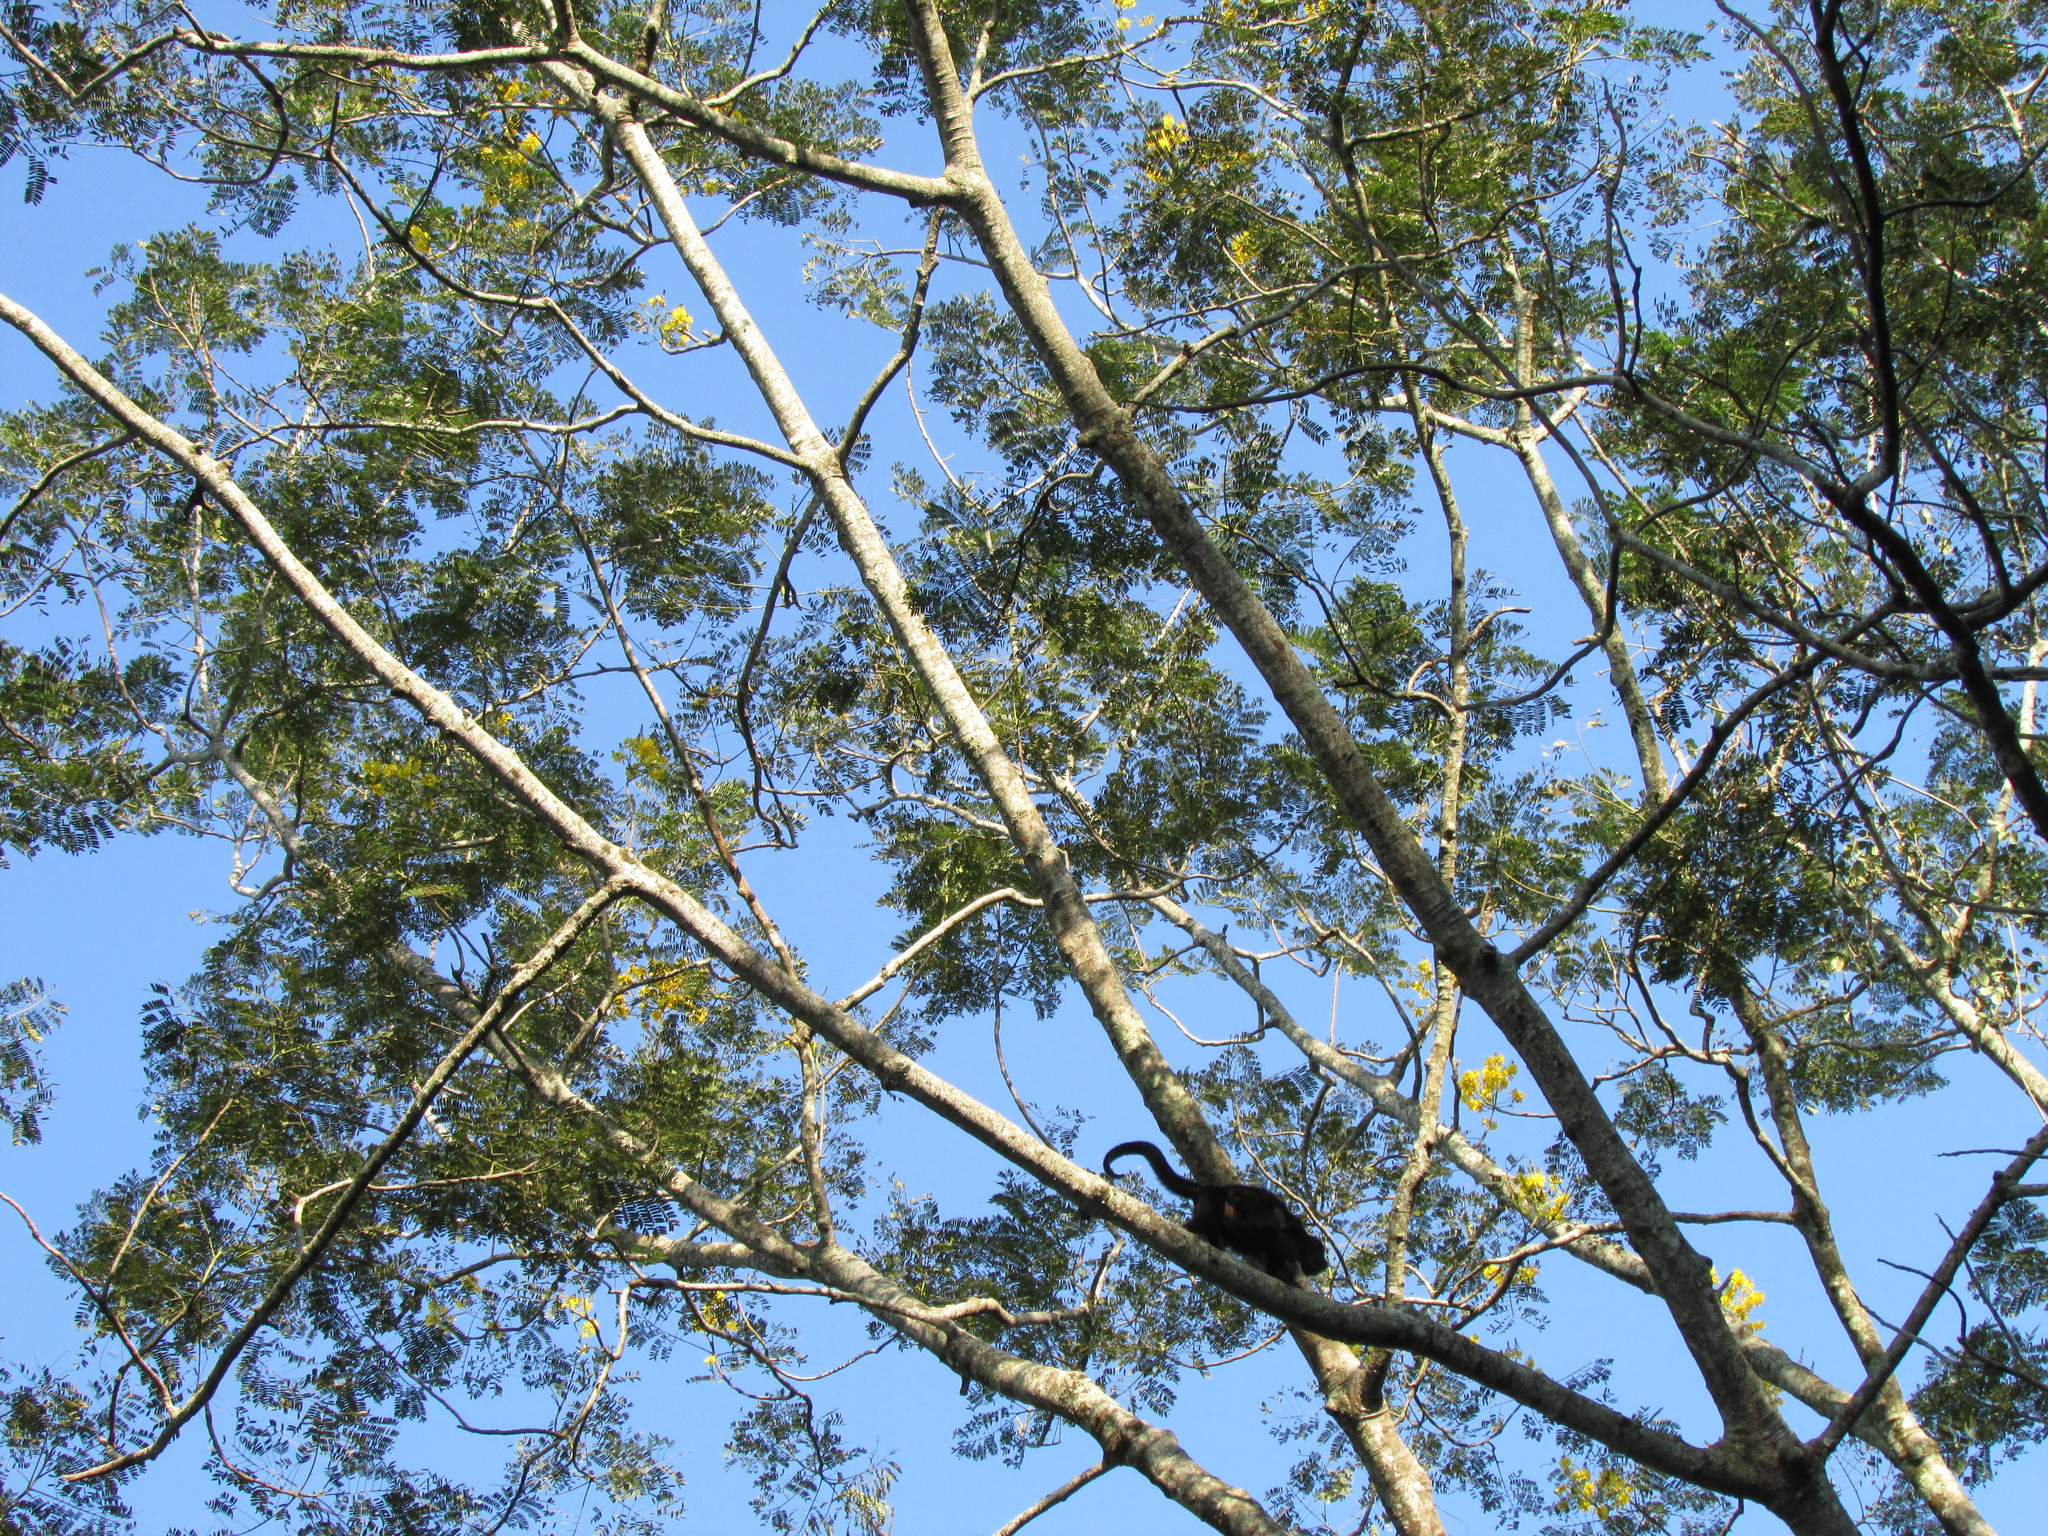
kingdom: Animalia
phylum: Chordata
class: Mammalia
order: Primates
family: Atelidae
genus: Alouatta
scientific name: Alouatta pigra
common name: Guatemalan black howler
